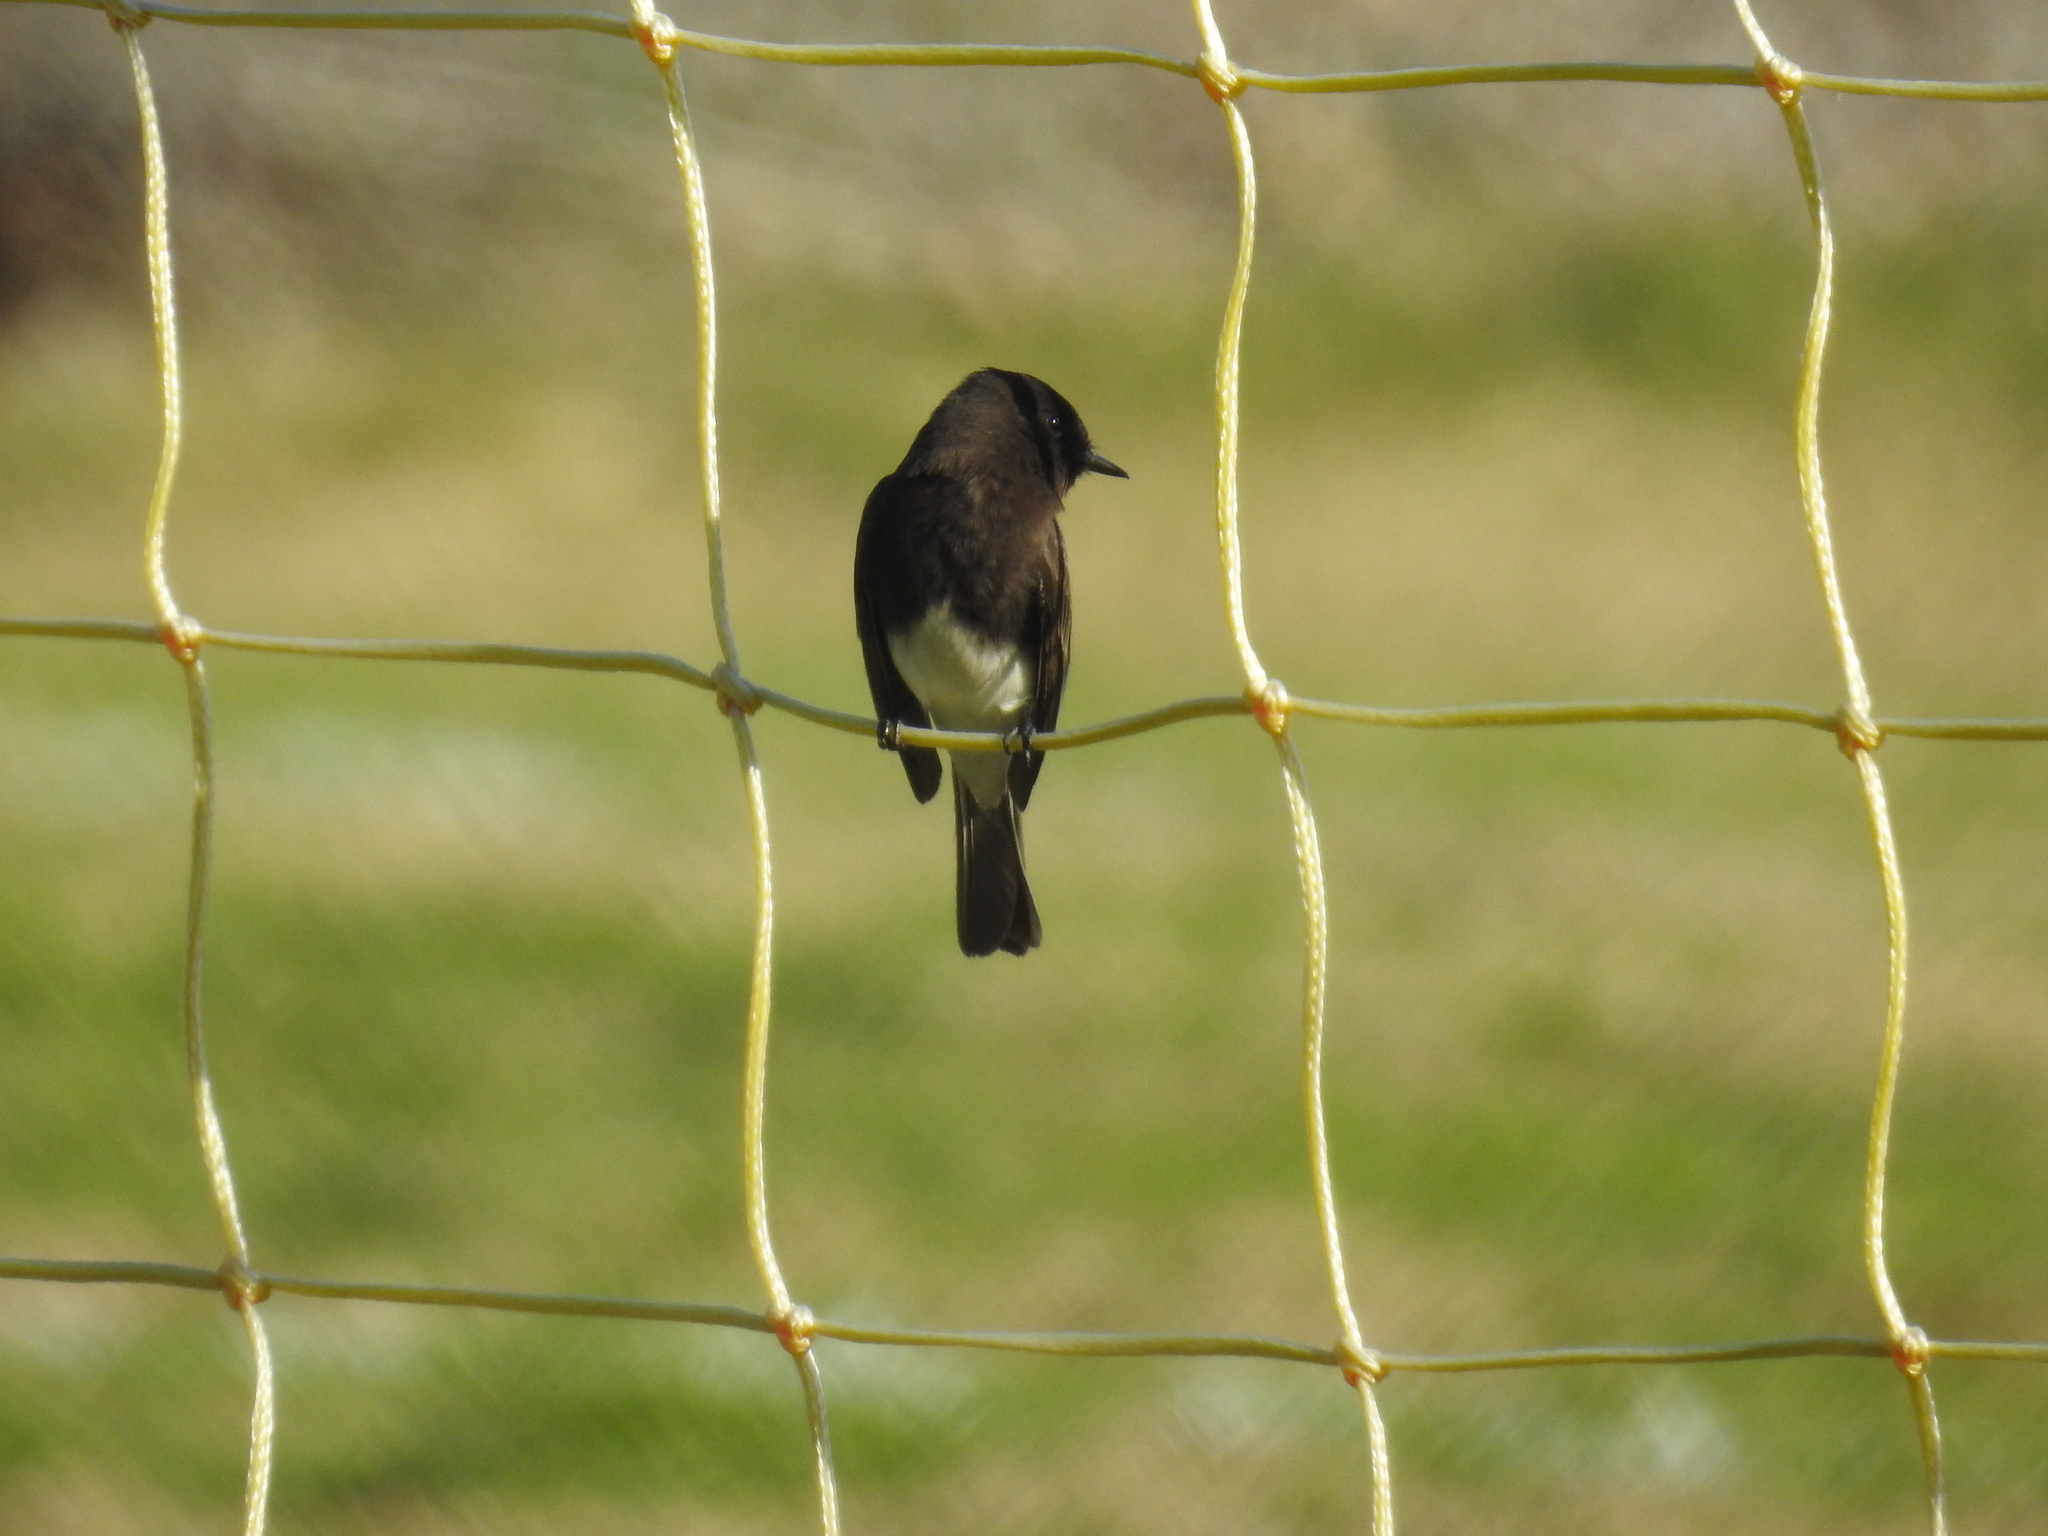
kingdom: Animalia
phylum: Chordata
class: Aves
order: Passeriformes
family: Tyrannidae
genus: Sayornis
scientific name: Sayornis nigricans
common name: Black phoebe
